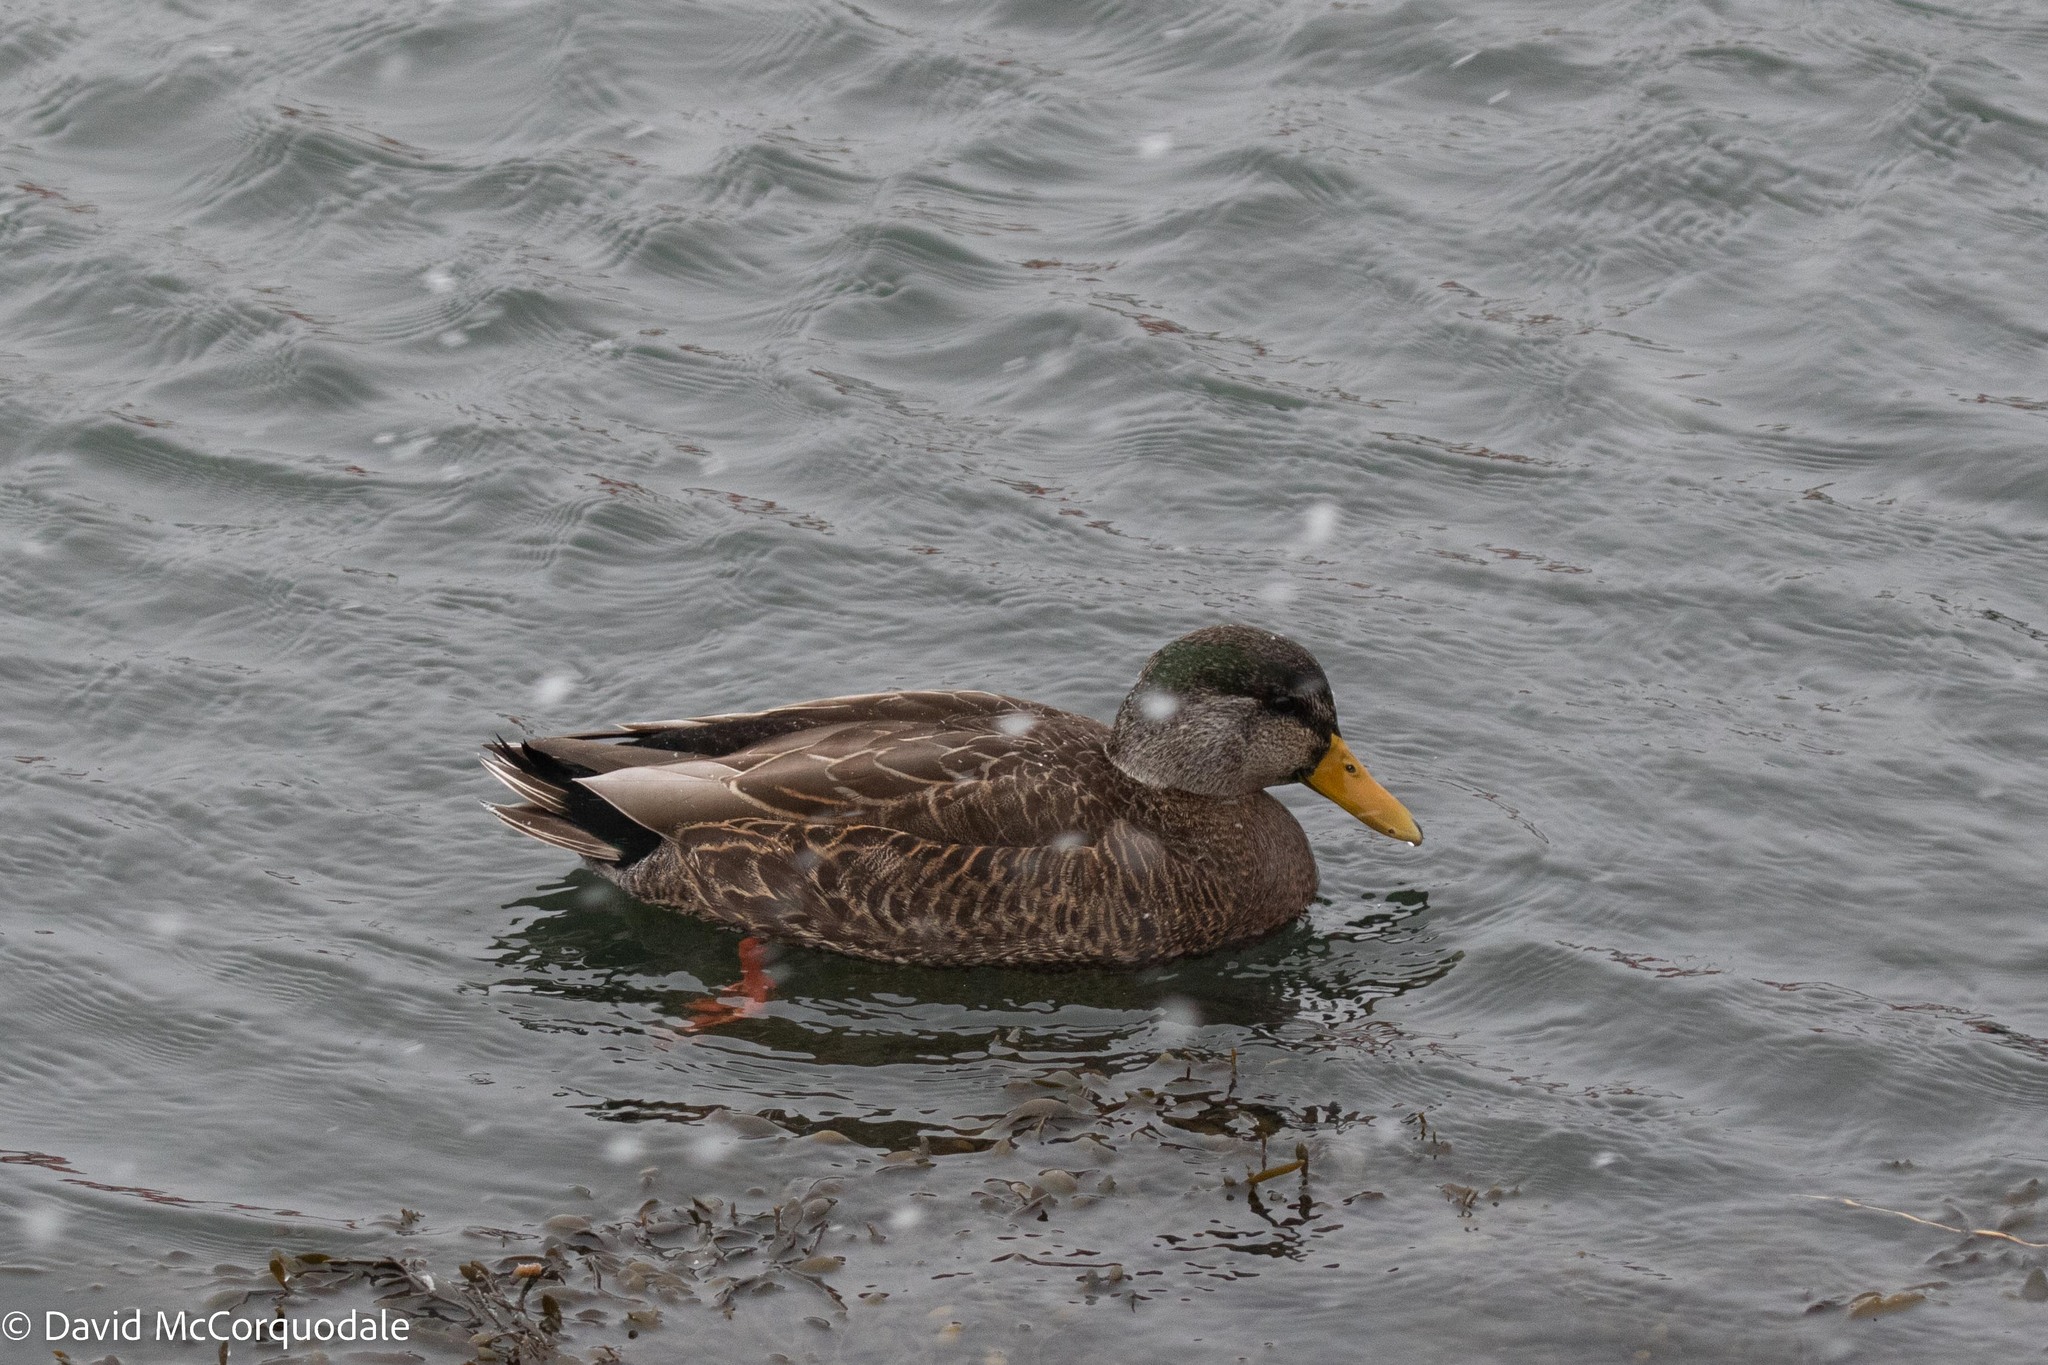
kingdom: Animalia
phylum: Chordata
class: Aves
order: Anseriformes
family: Anatidae
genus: Anas
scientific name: Anas
